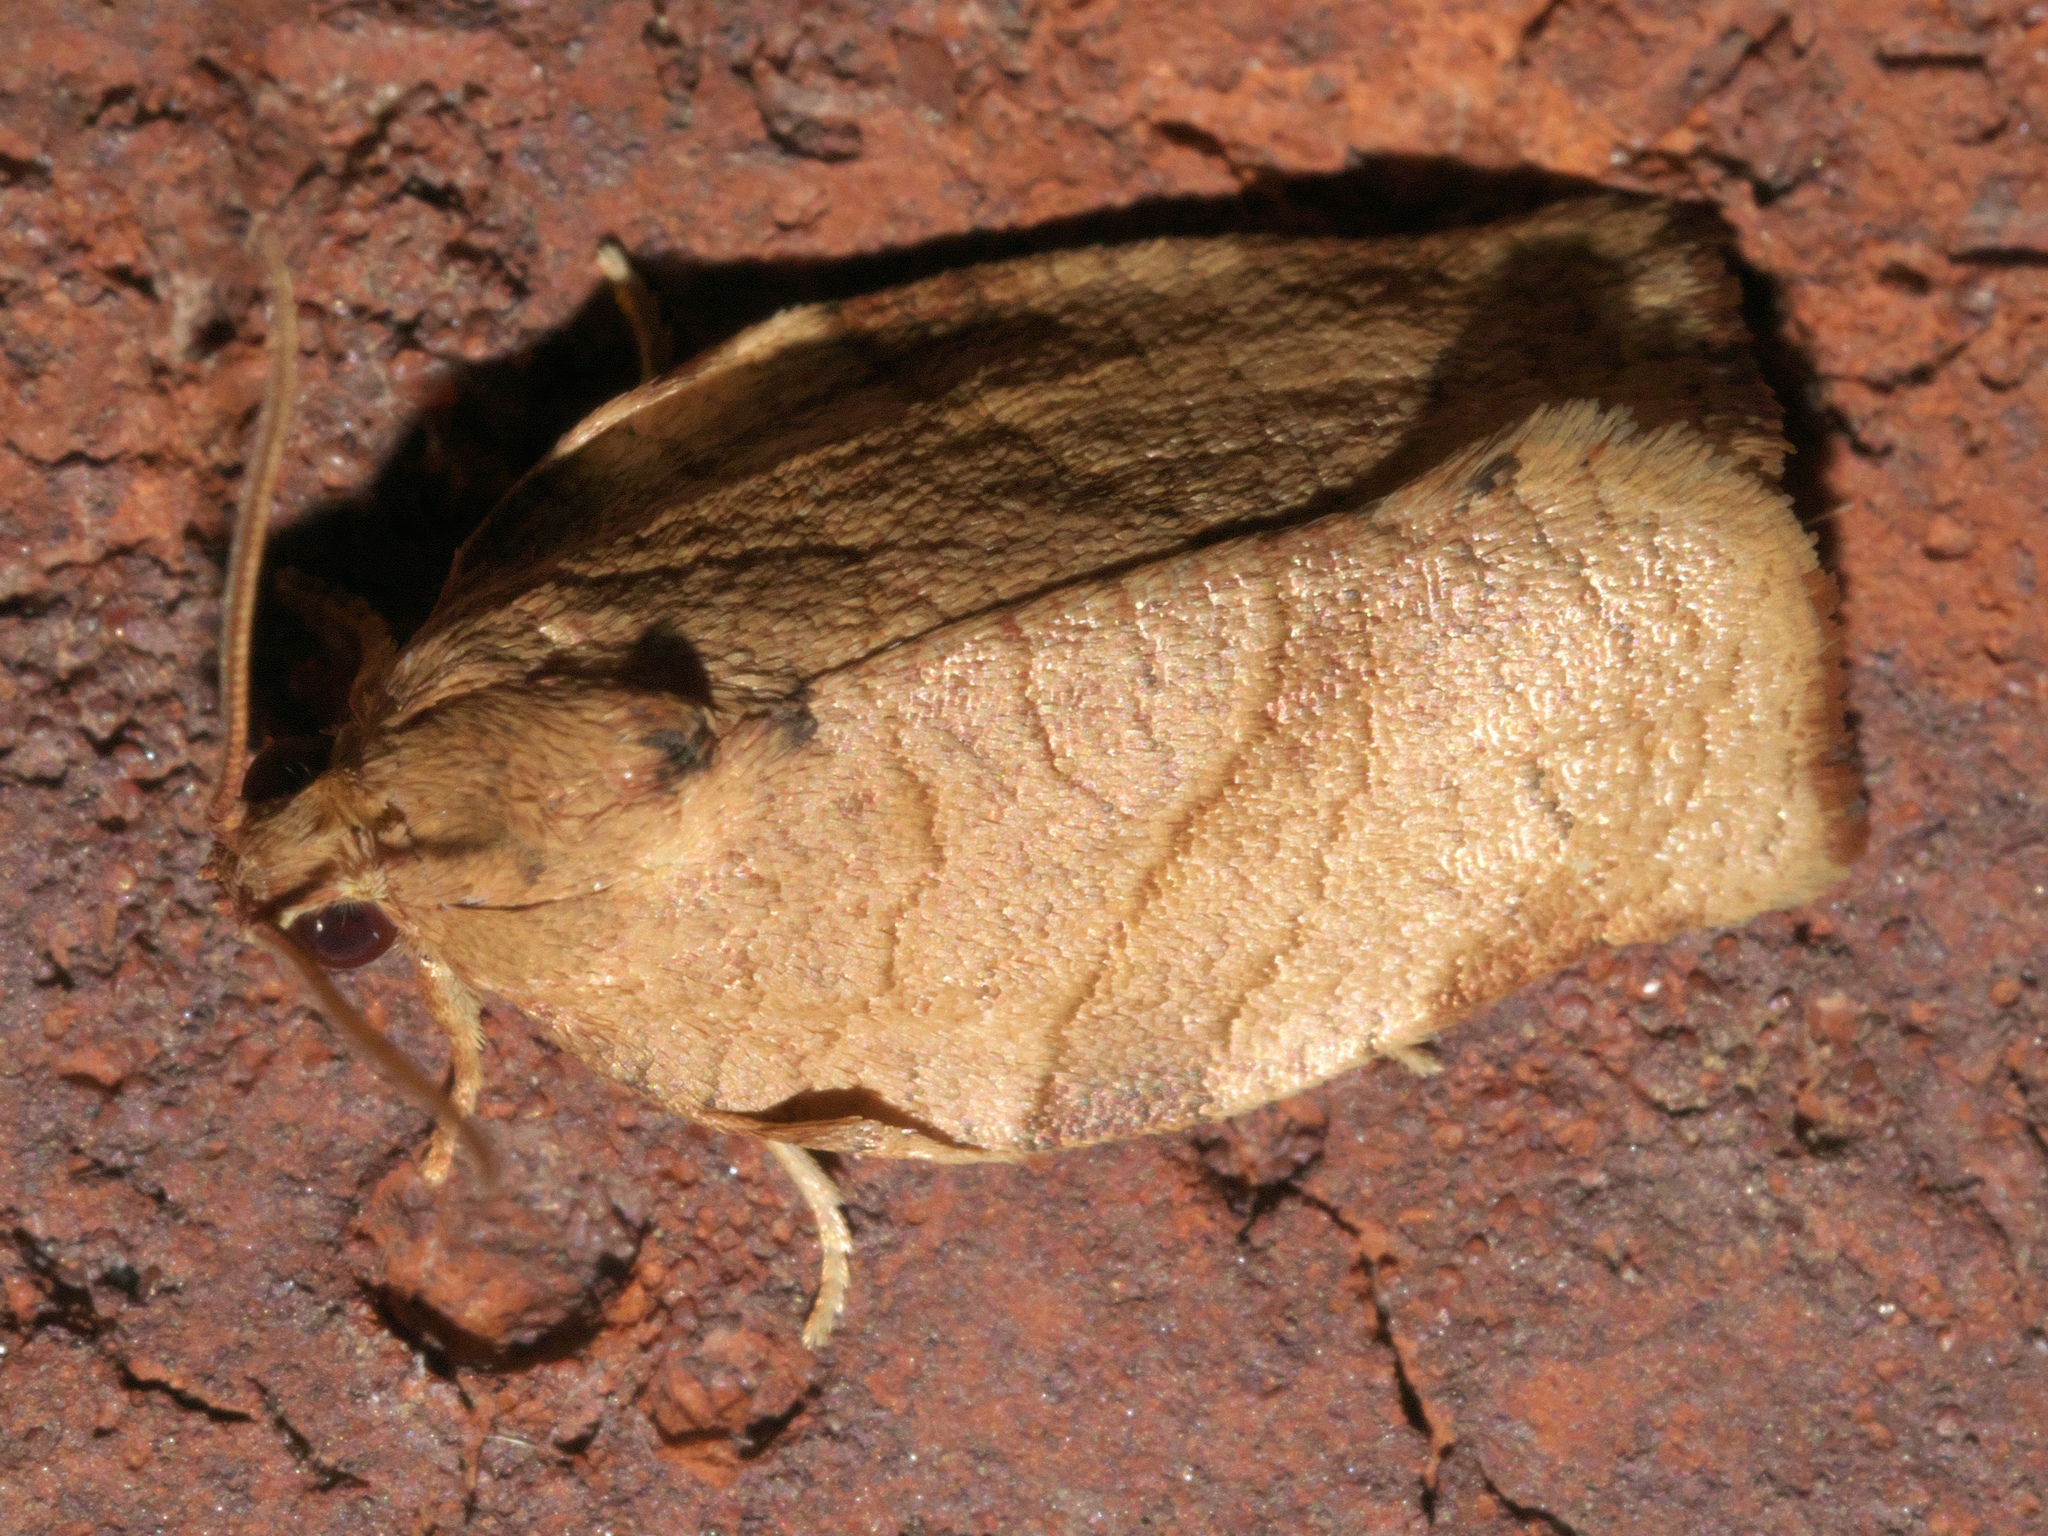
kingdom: Animalia
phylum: Arthropoda
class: Insecta
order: Lepidoptera
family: Tortricidae
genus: Choristoneura
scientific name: Choristoneura rosaceana
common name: Oblique-banded leafroller moth
